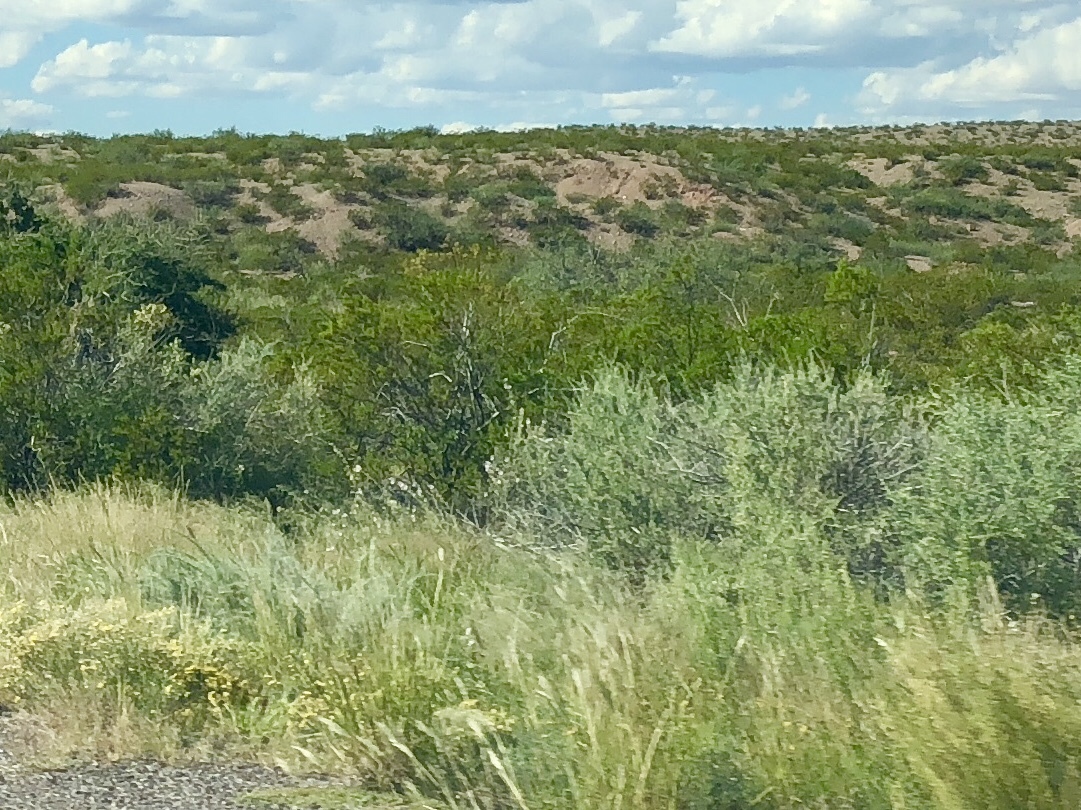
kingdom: Plantae
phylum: Tracheophyta
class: Magnoliopsida
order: Zygophyllales
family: Zygophyllaceae
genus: Larrea
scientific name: Larrea tridentata
